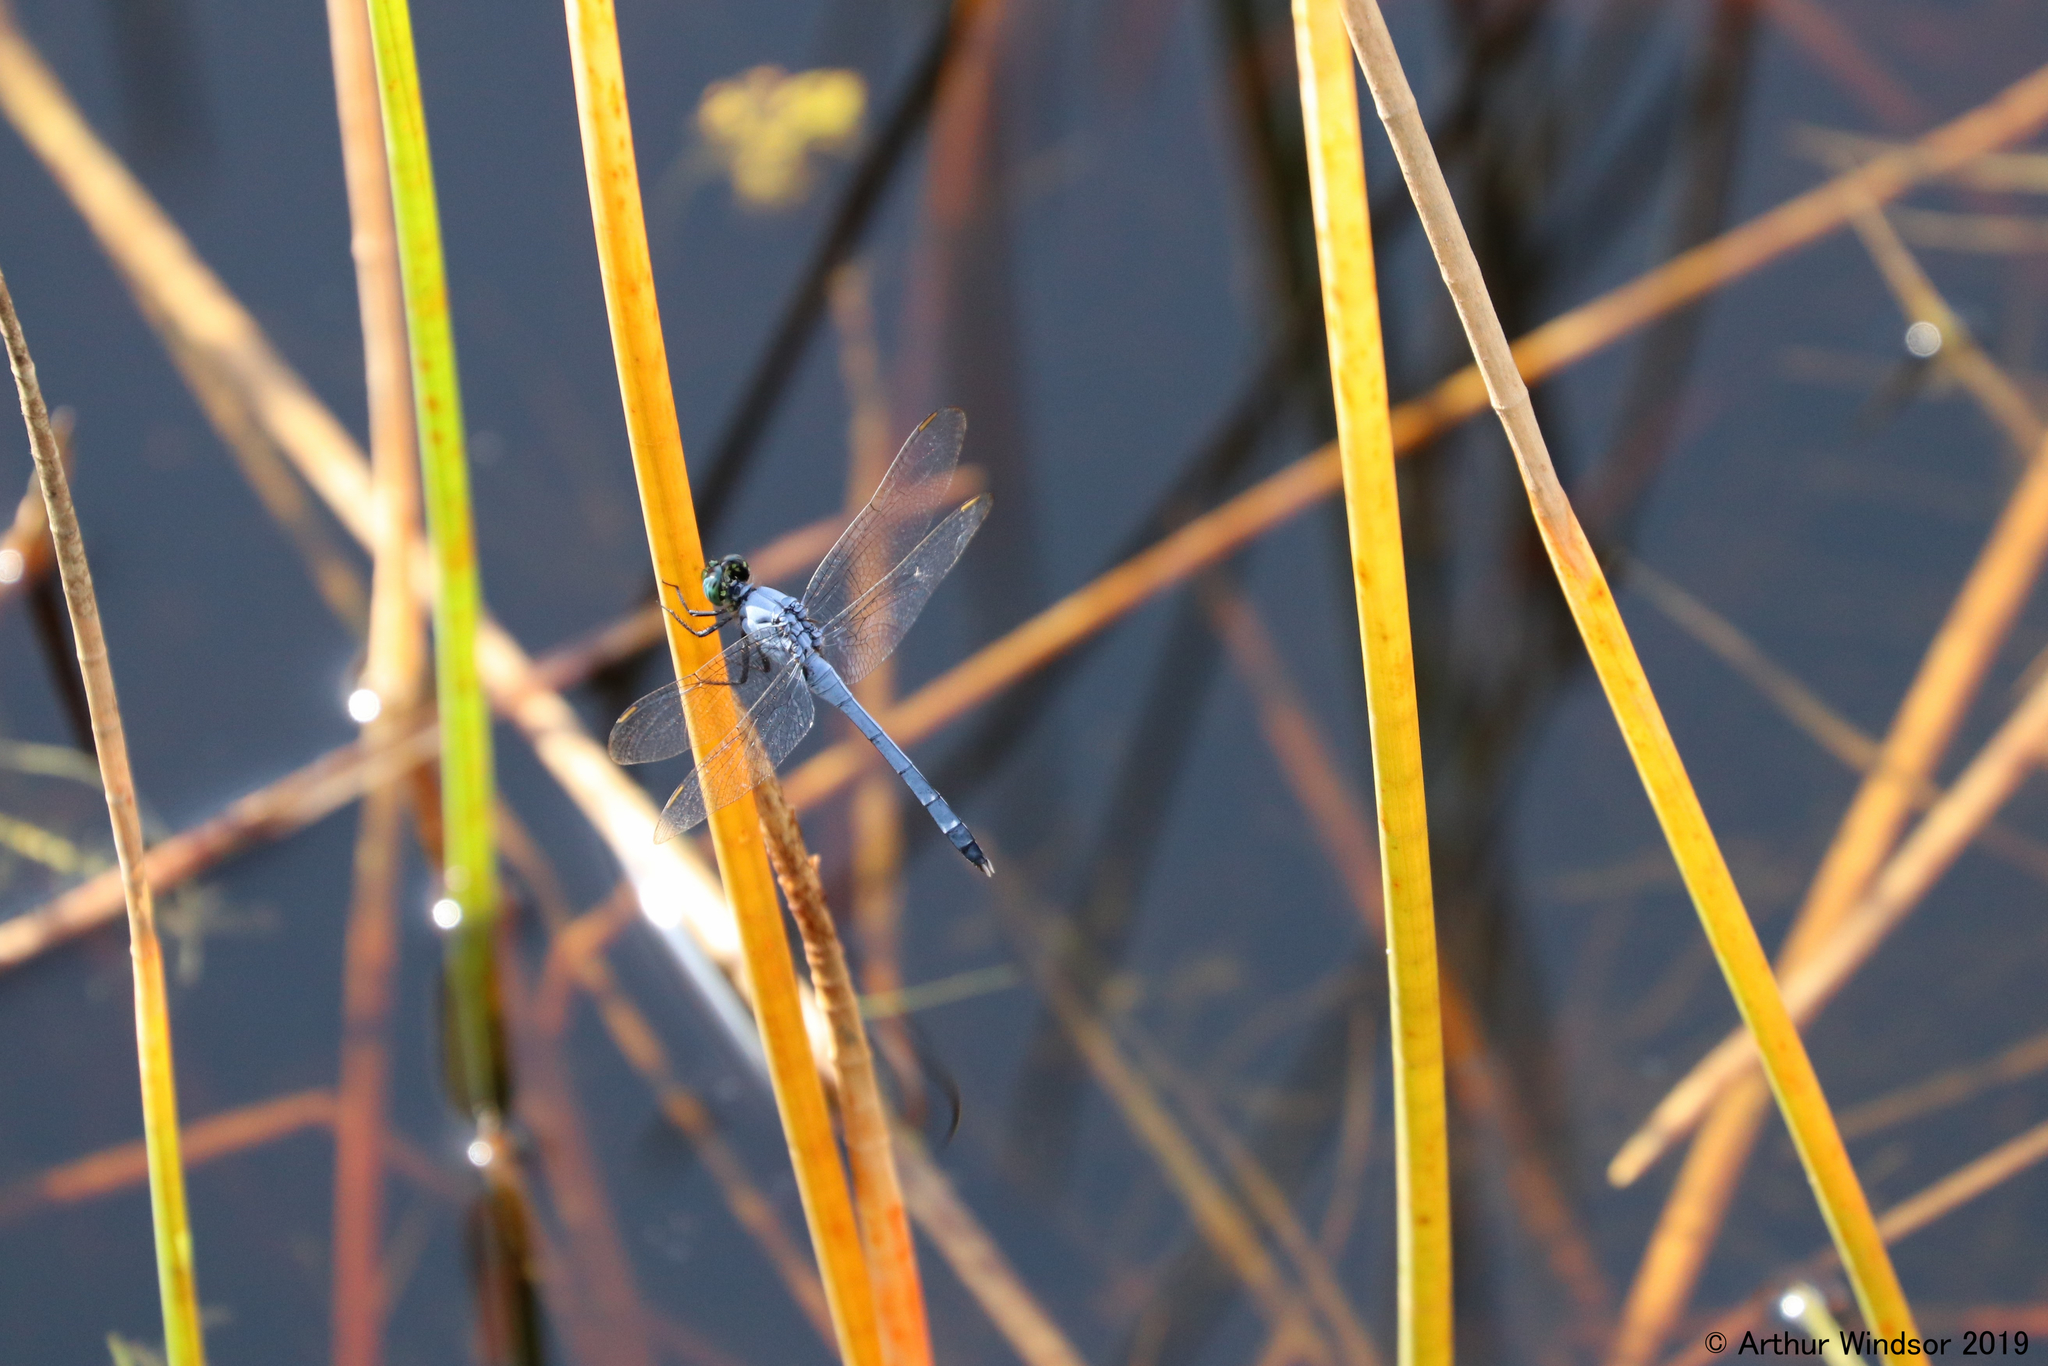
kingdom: Animalia
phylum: Arthropoda
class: Insecta
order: Odonata
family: Libellulidae
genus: Erythrodiplax
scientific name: Erythrodiplax minuscula
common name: Little blue dragonlet
